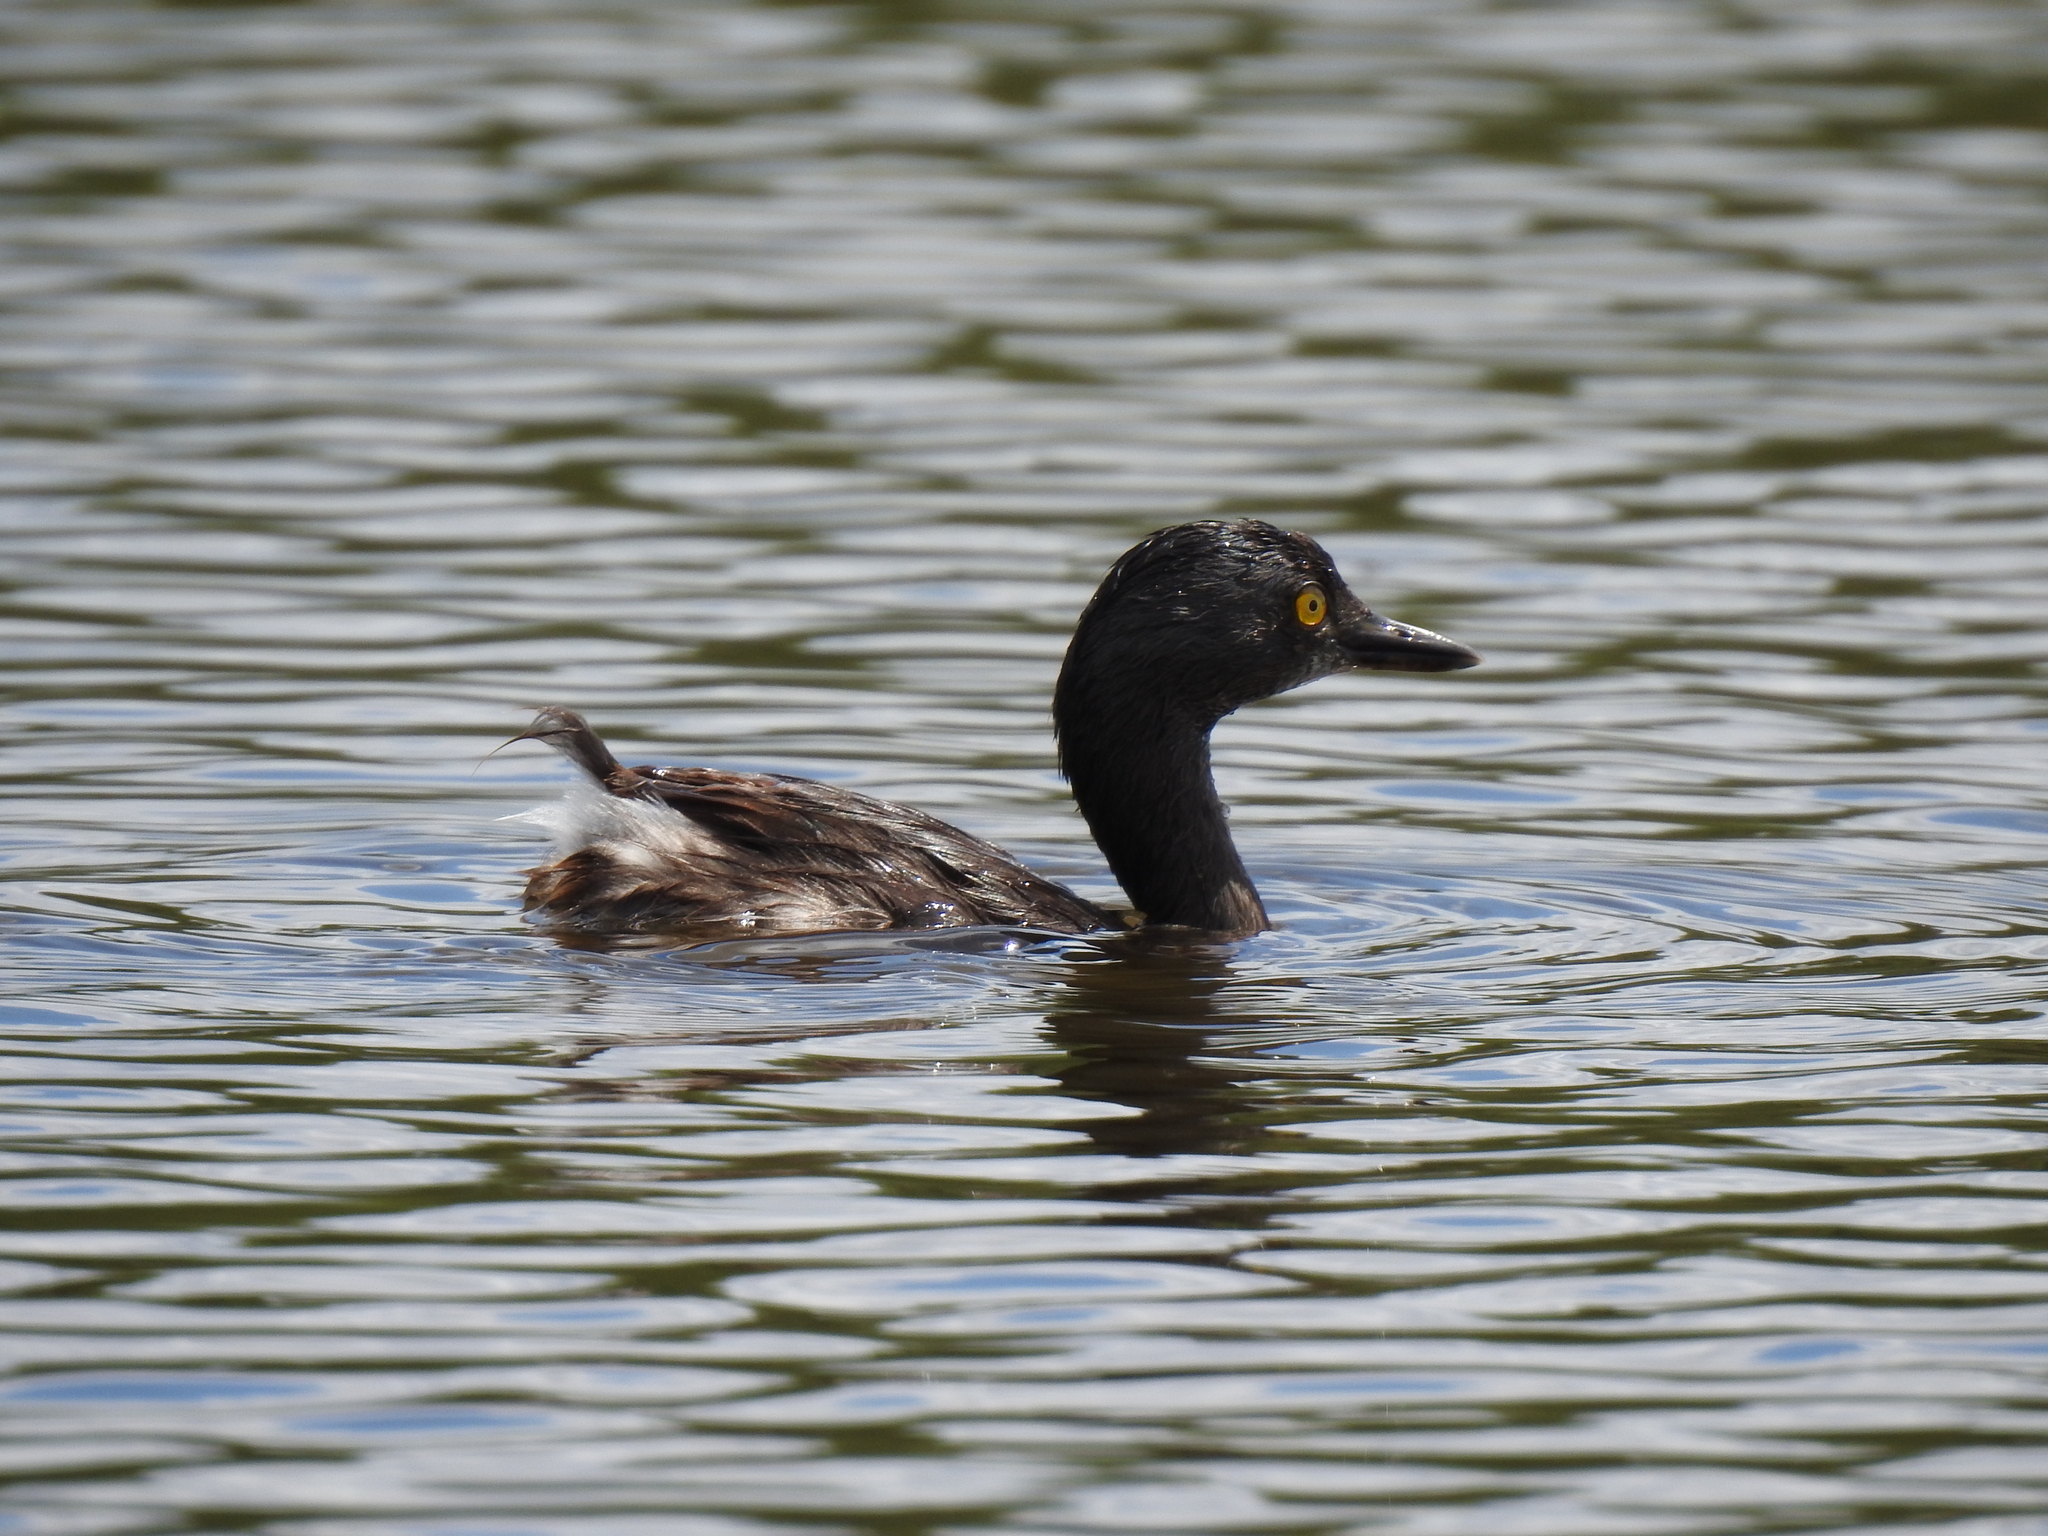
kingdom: Animalia
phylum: Chordata
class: Aves
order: Podicipediformes
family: Podicipedidae
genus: Tachybaptus
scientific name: Tachybaptus dominicus
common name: Least grebe
